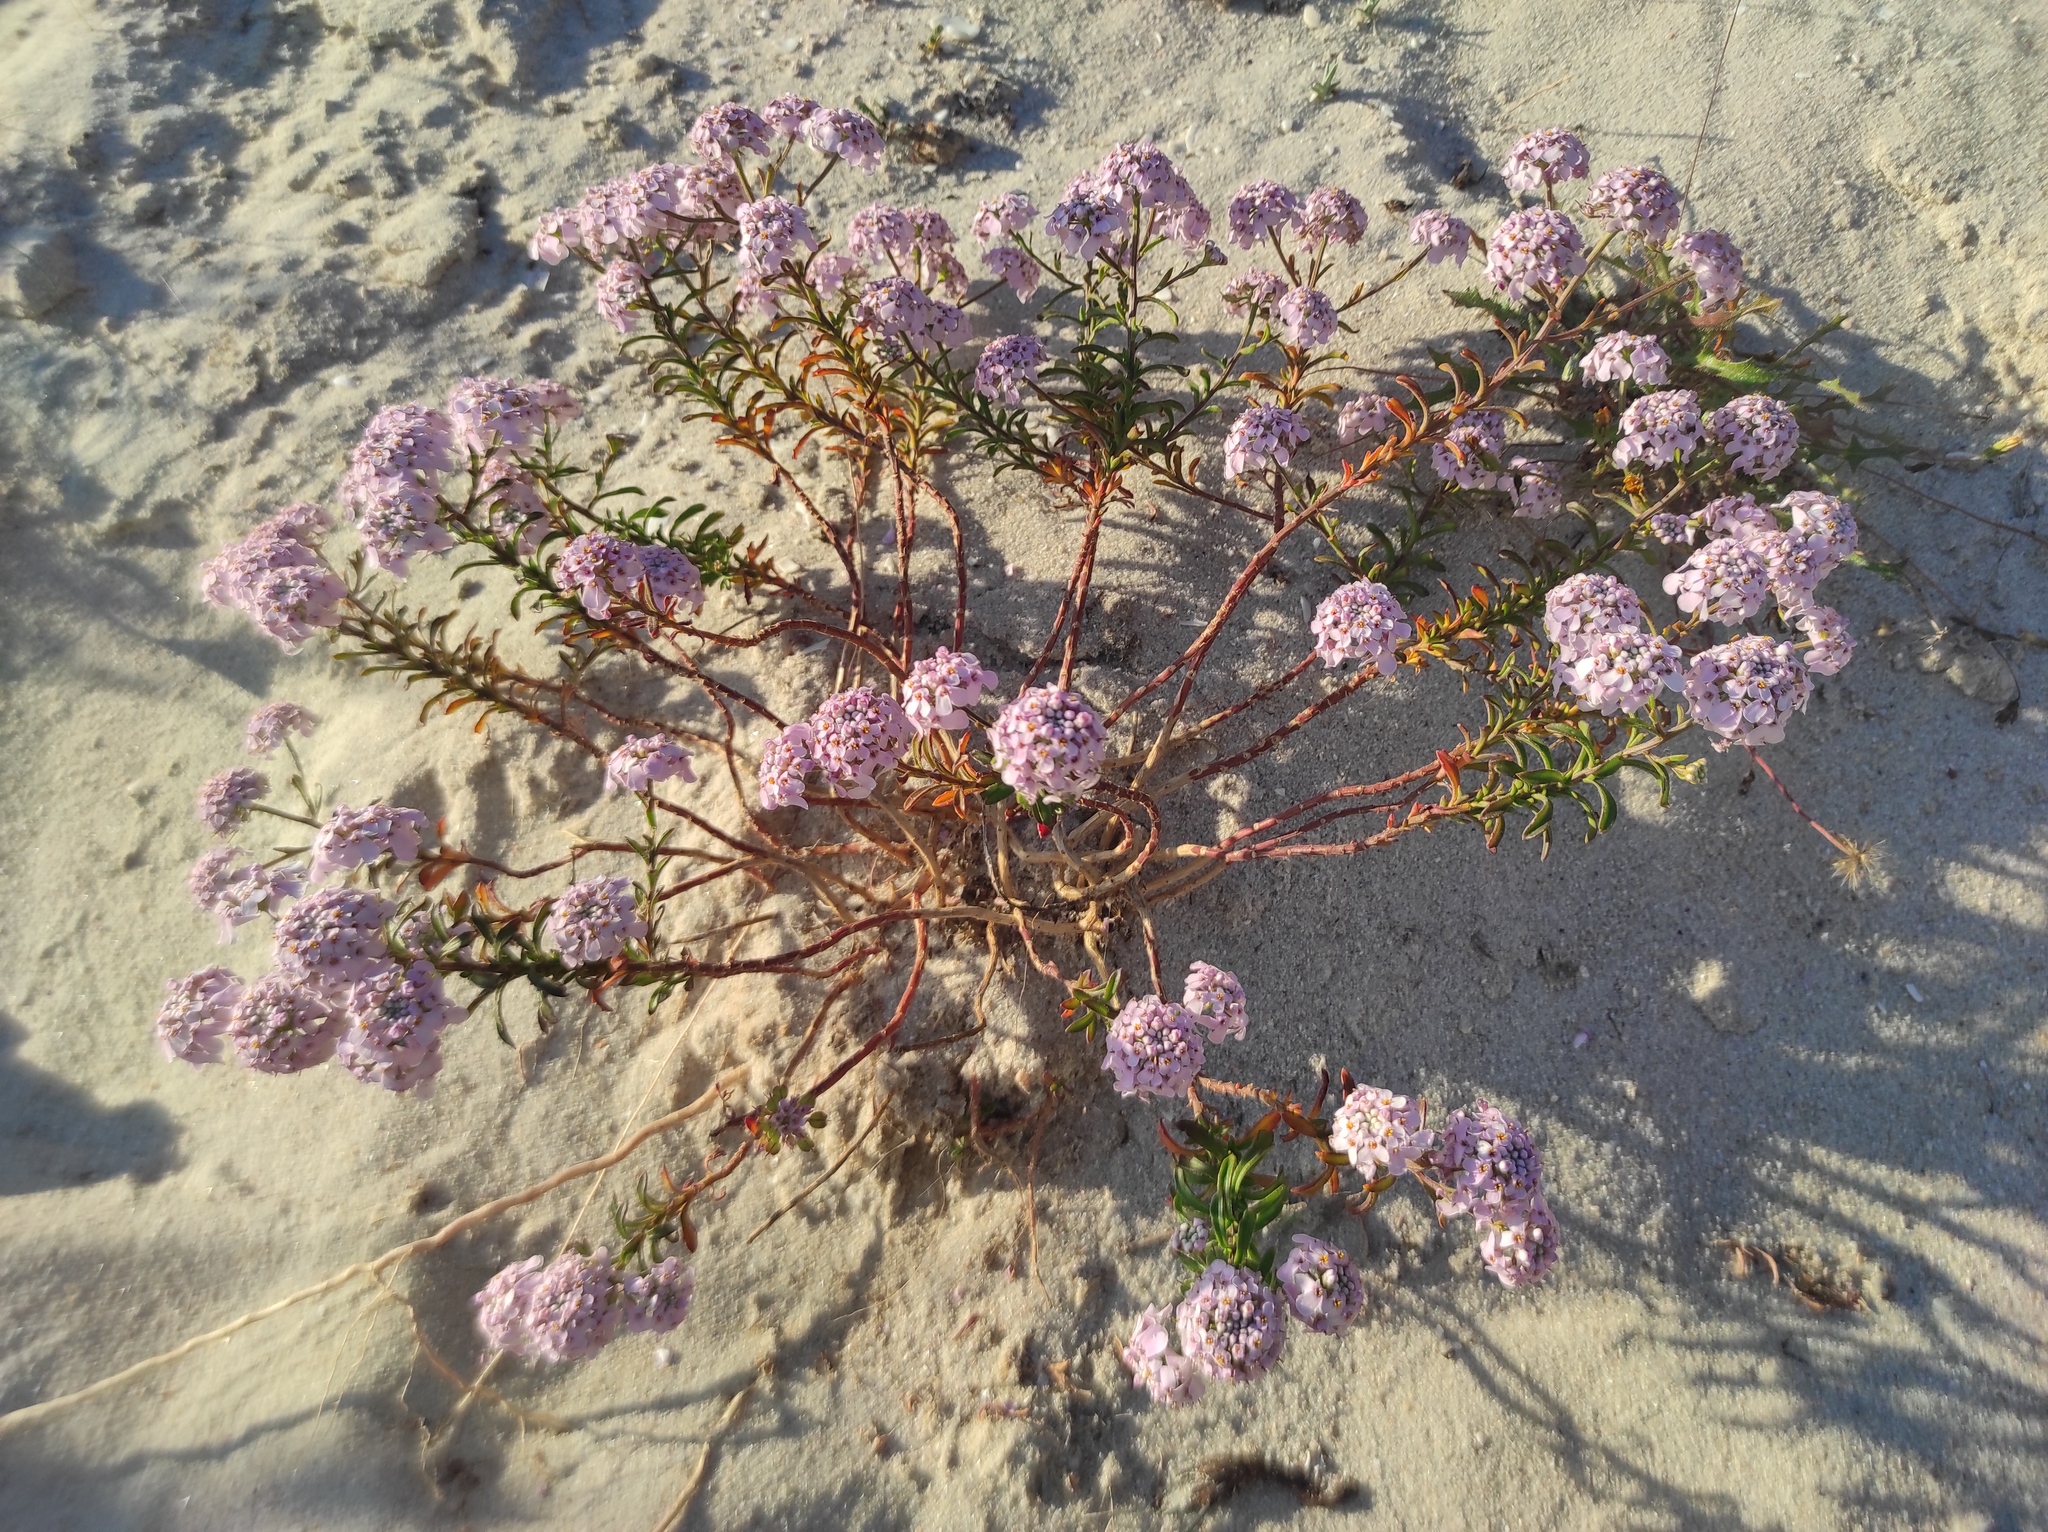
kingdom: Plantae
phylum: Tracheophyta
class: Magnoliopsida
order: Brassicales
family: Brassicaceae
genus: Iberis
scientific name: Iberis procumbens
